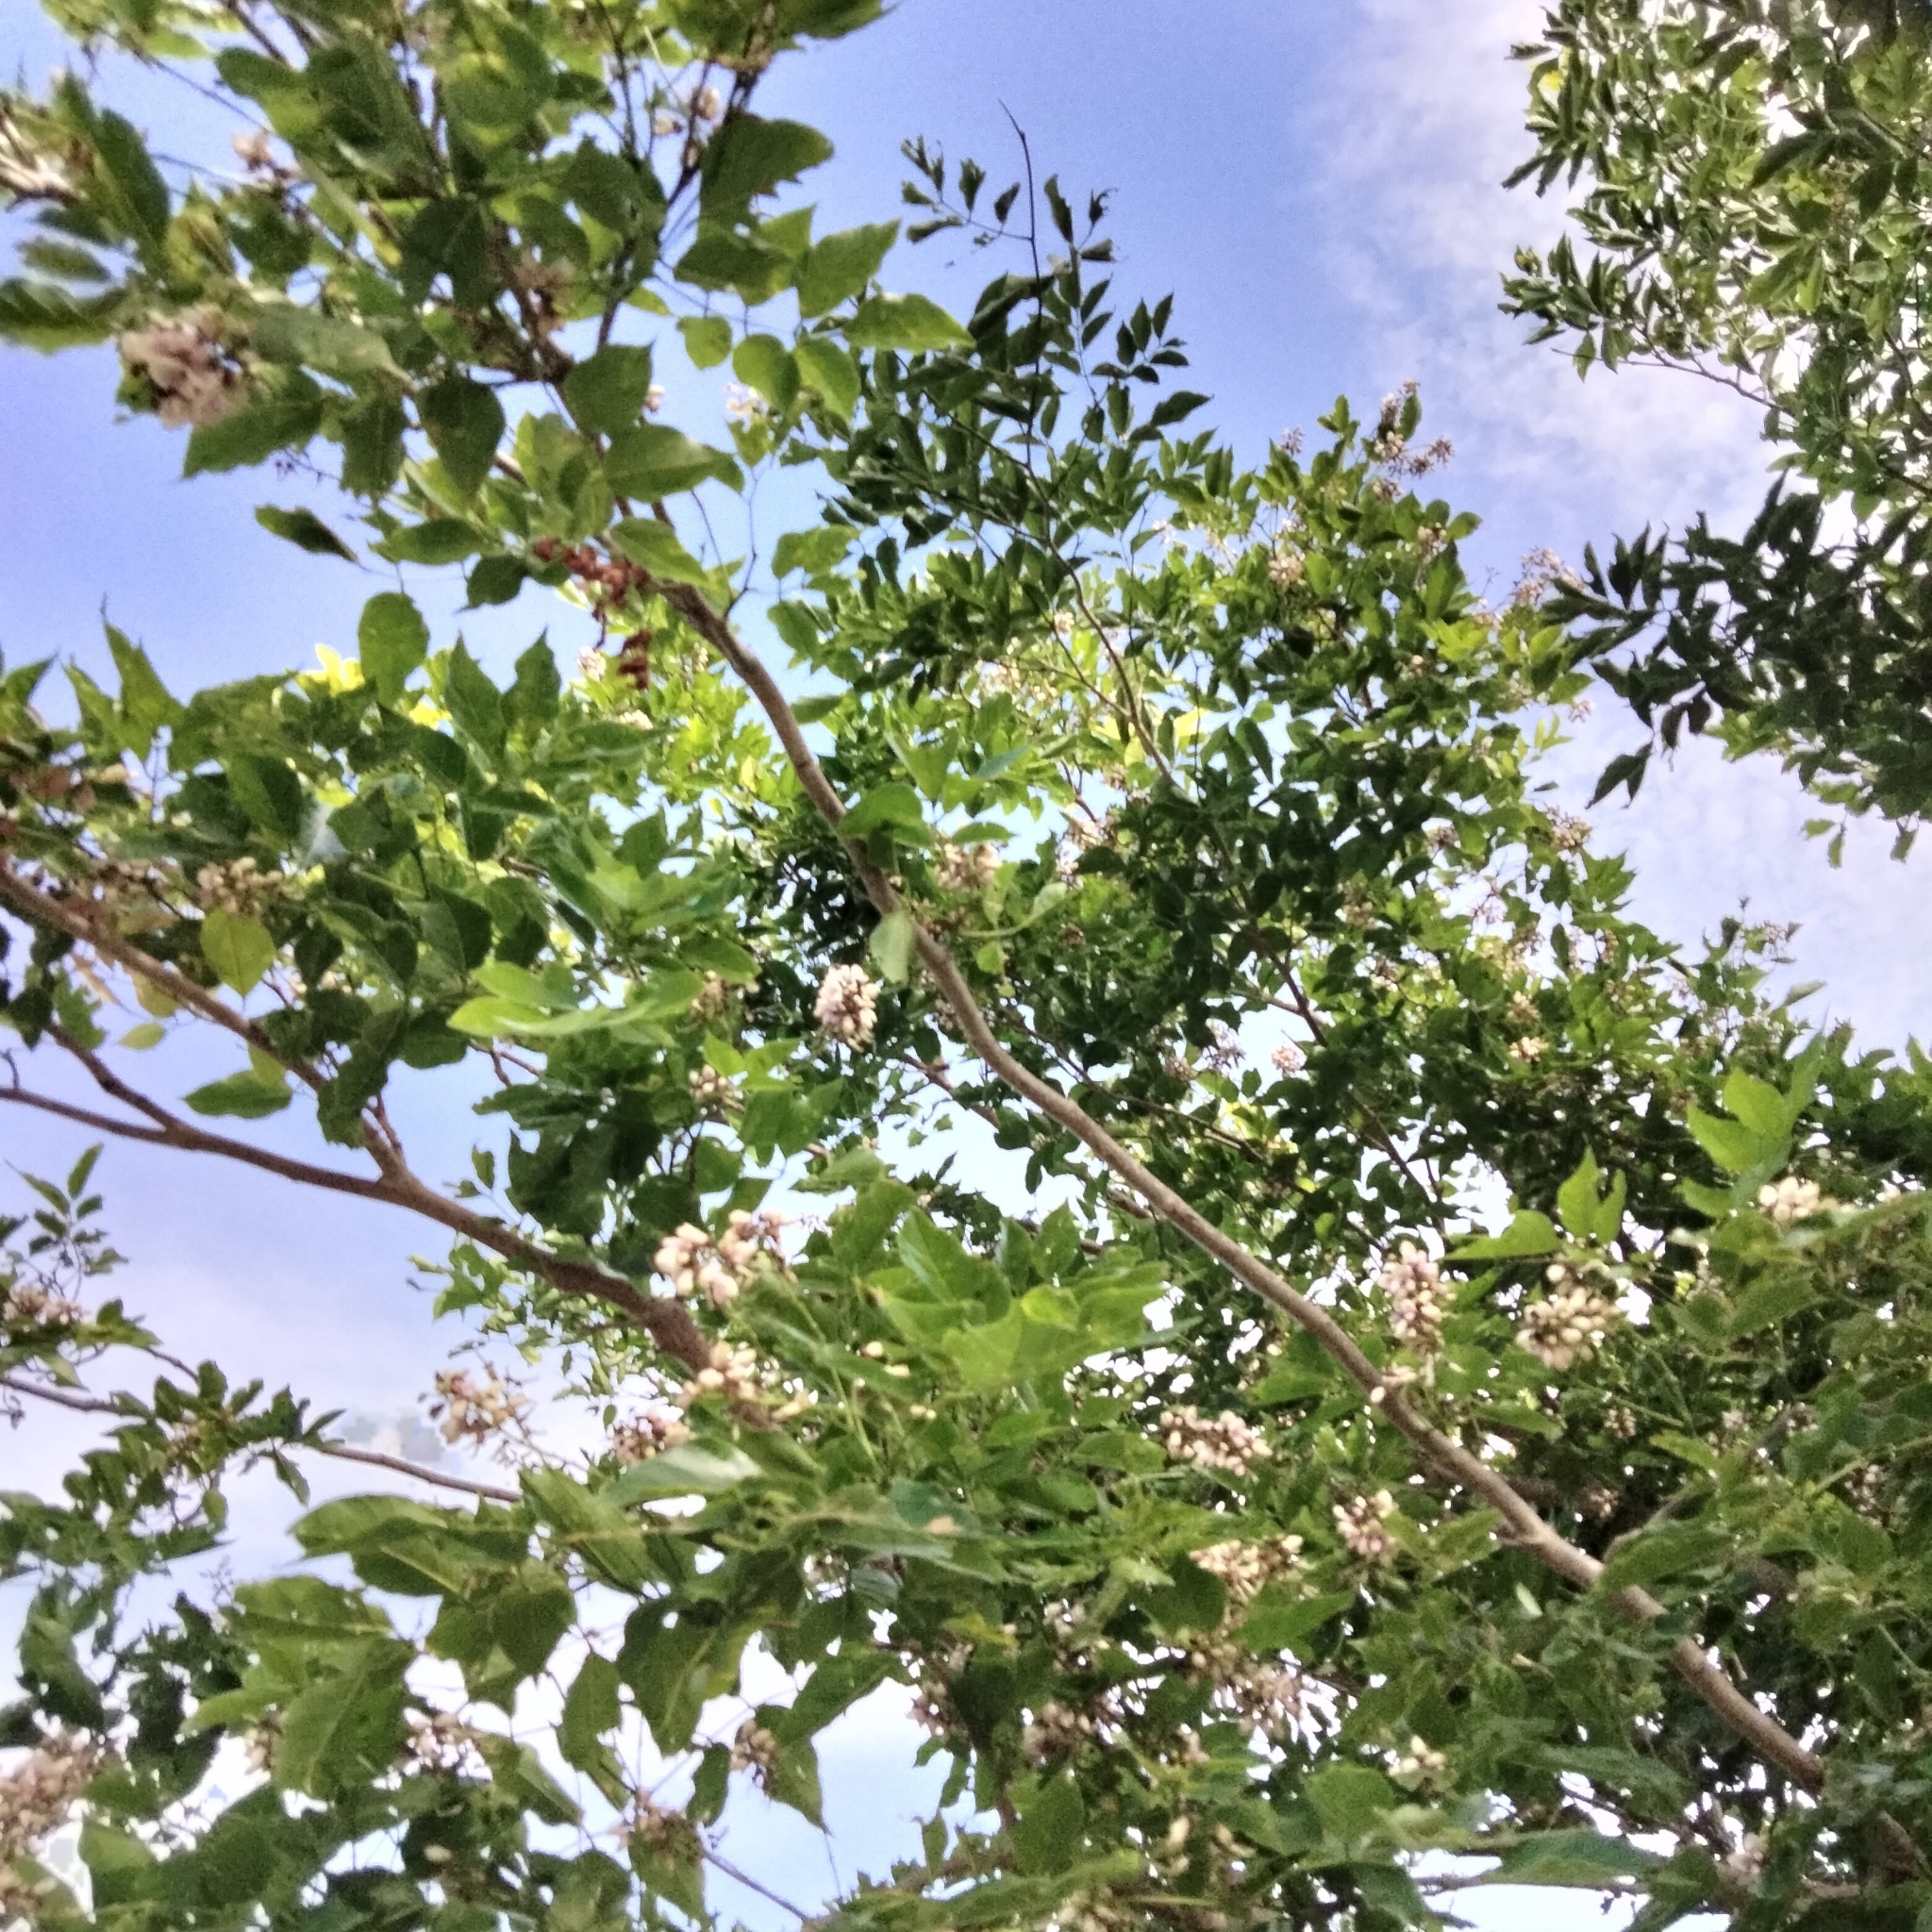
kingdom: Plantae
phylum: Tracheophyta
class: Magnoliopsida
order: Fabales
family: Fabaceae
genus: Pongamia
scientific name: Pongamia pinnata
